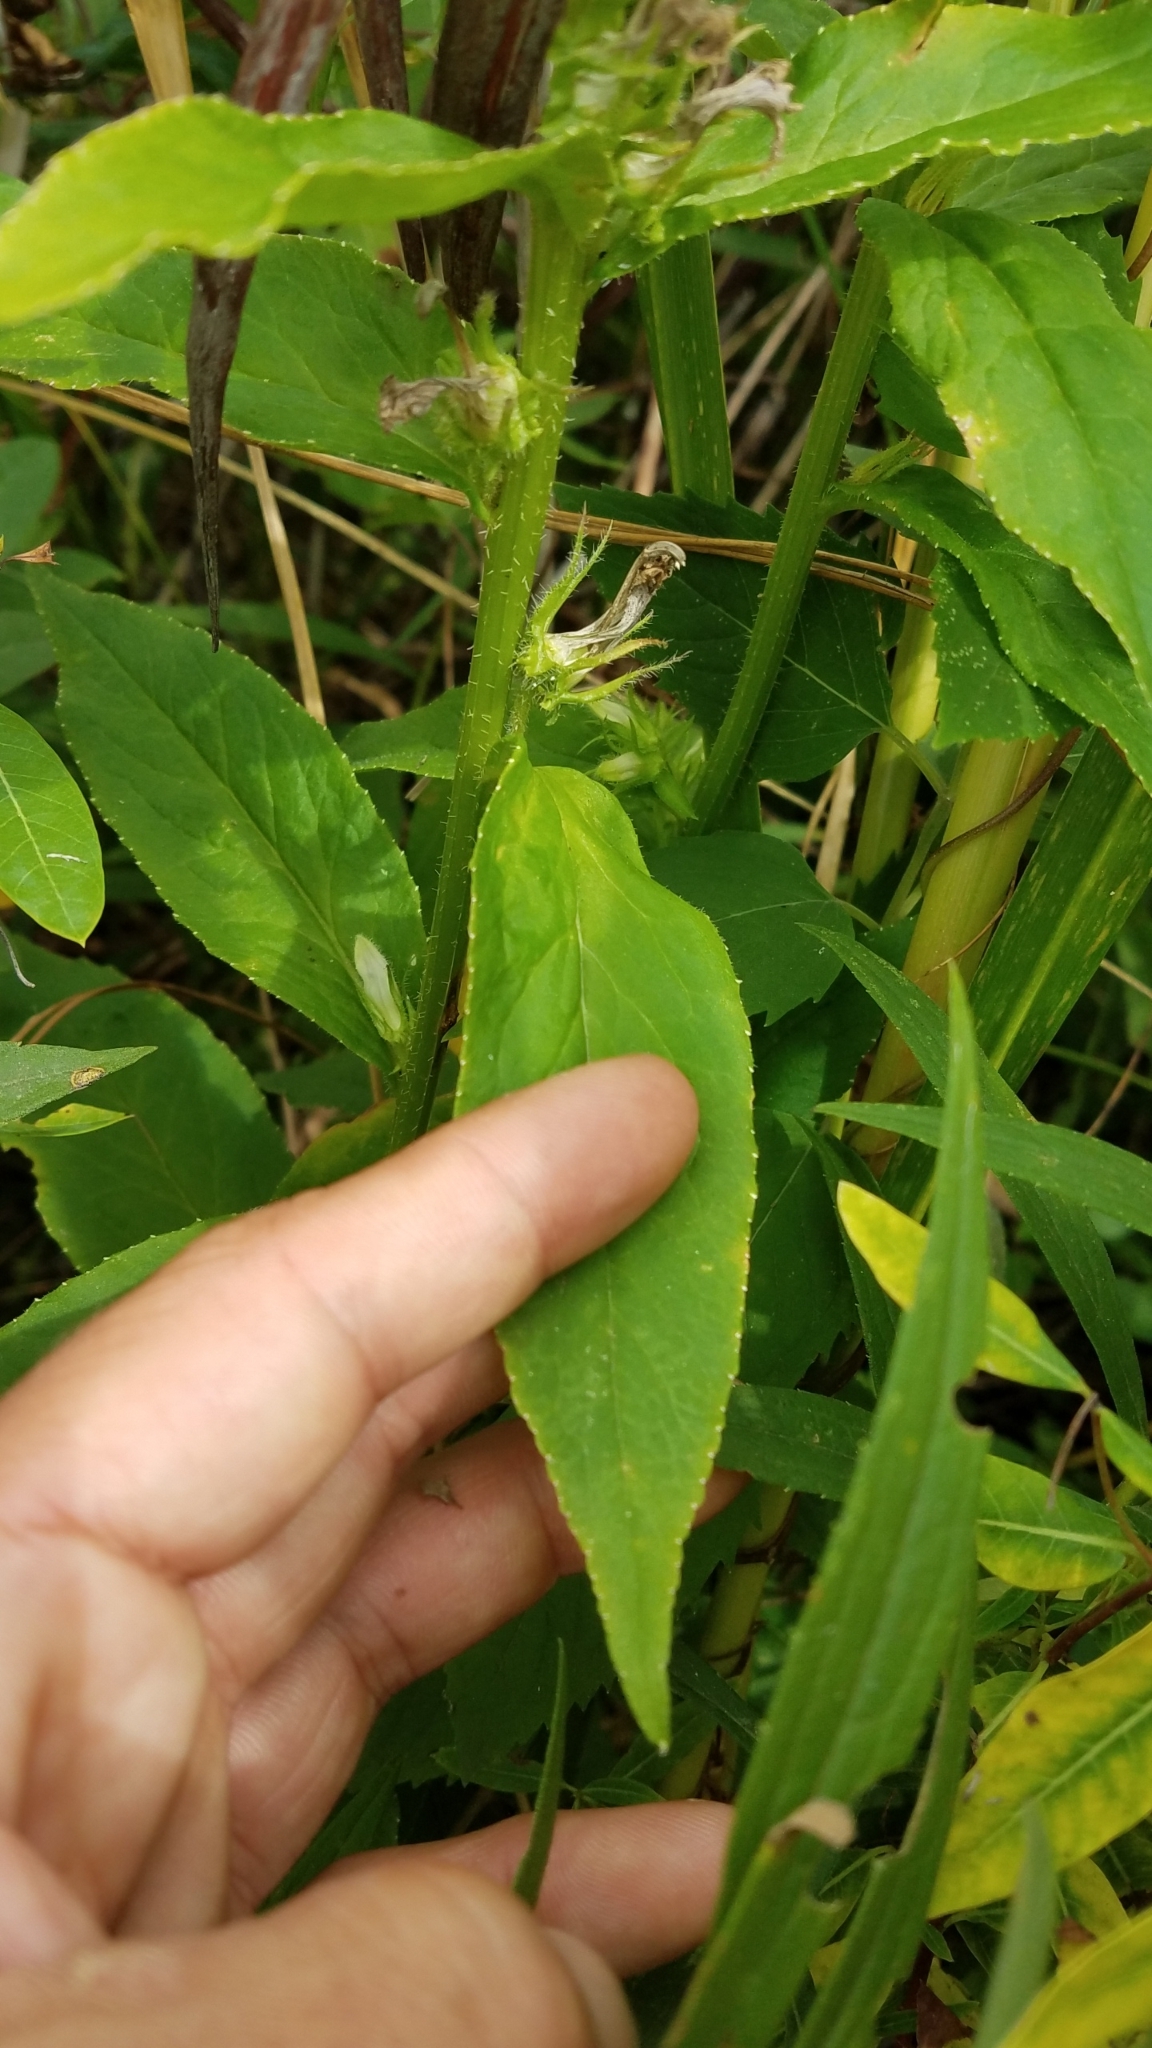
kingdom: Plantae
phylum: Tracheophyta
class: Magnoliopsida
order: Asterales
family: Campanulaceae
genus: Lobelia
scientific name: Lobelia siphilitica
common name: Great lobelia
